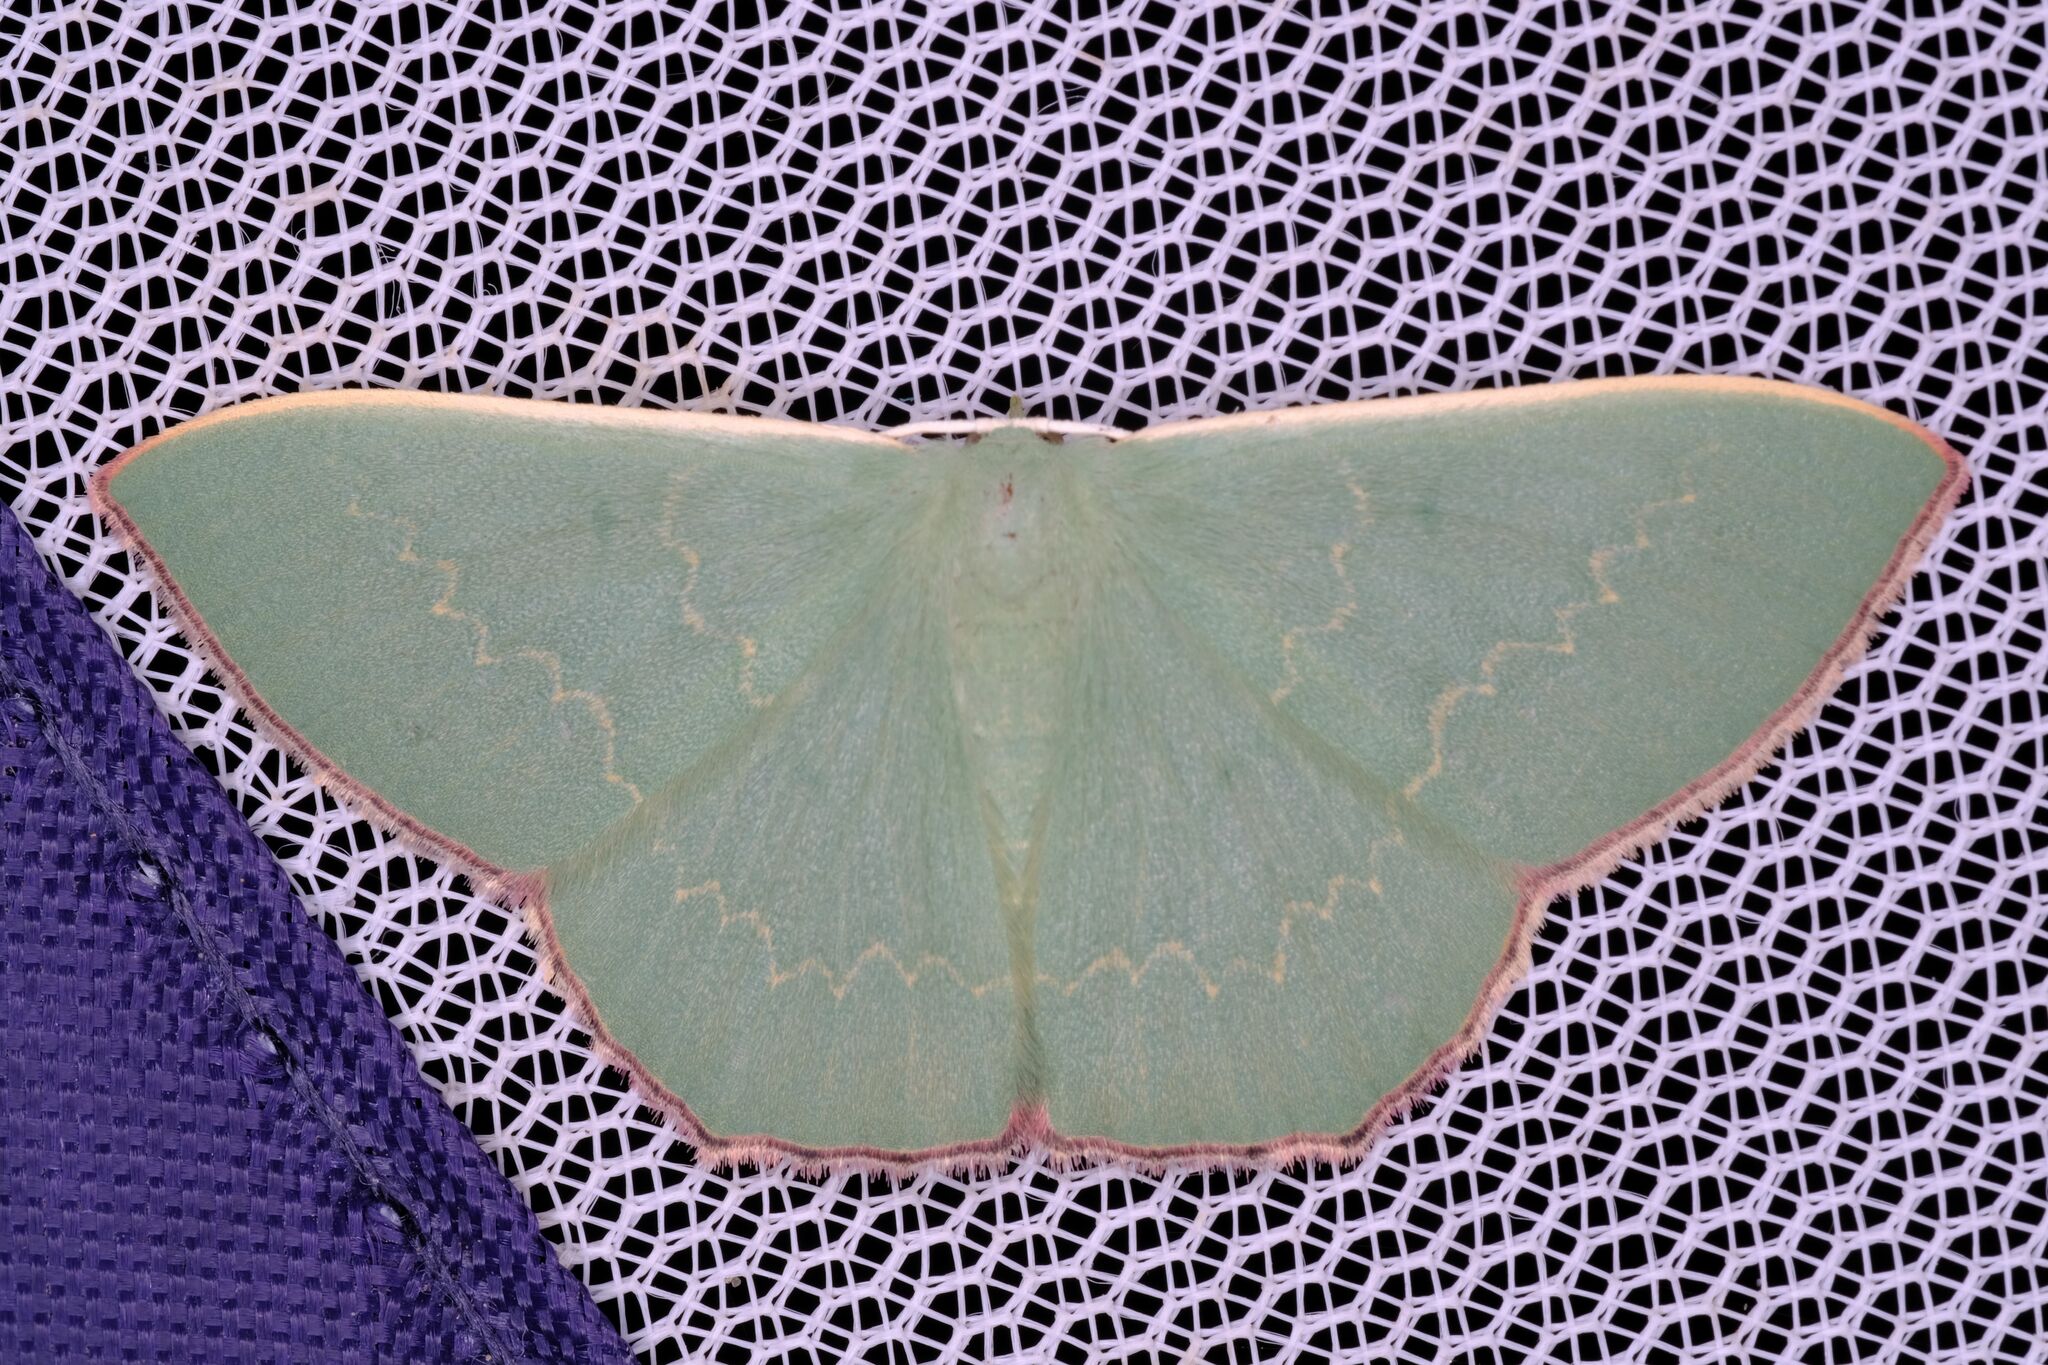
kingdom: Animalia
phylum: Arthropoda
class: Insecta
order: Lepidoptera
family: Geometridae
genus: Prasinocyma
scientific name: Prasinocyma semicrocea
